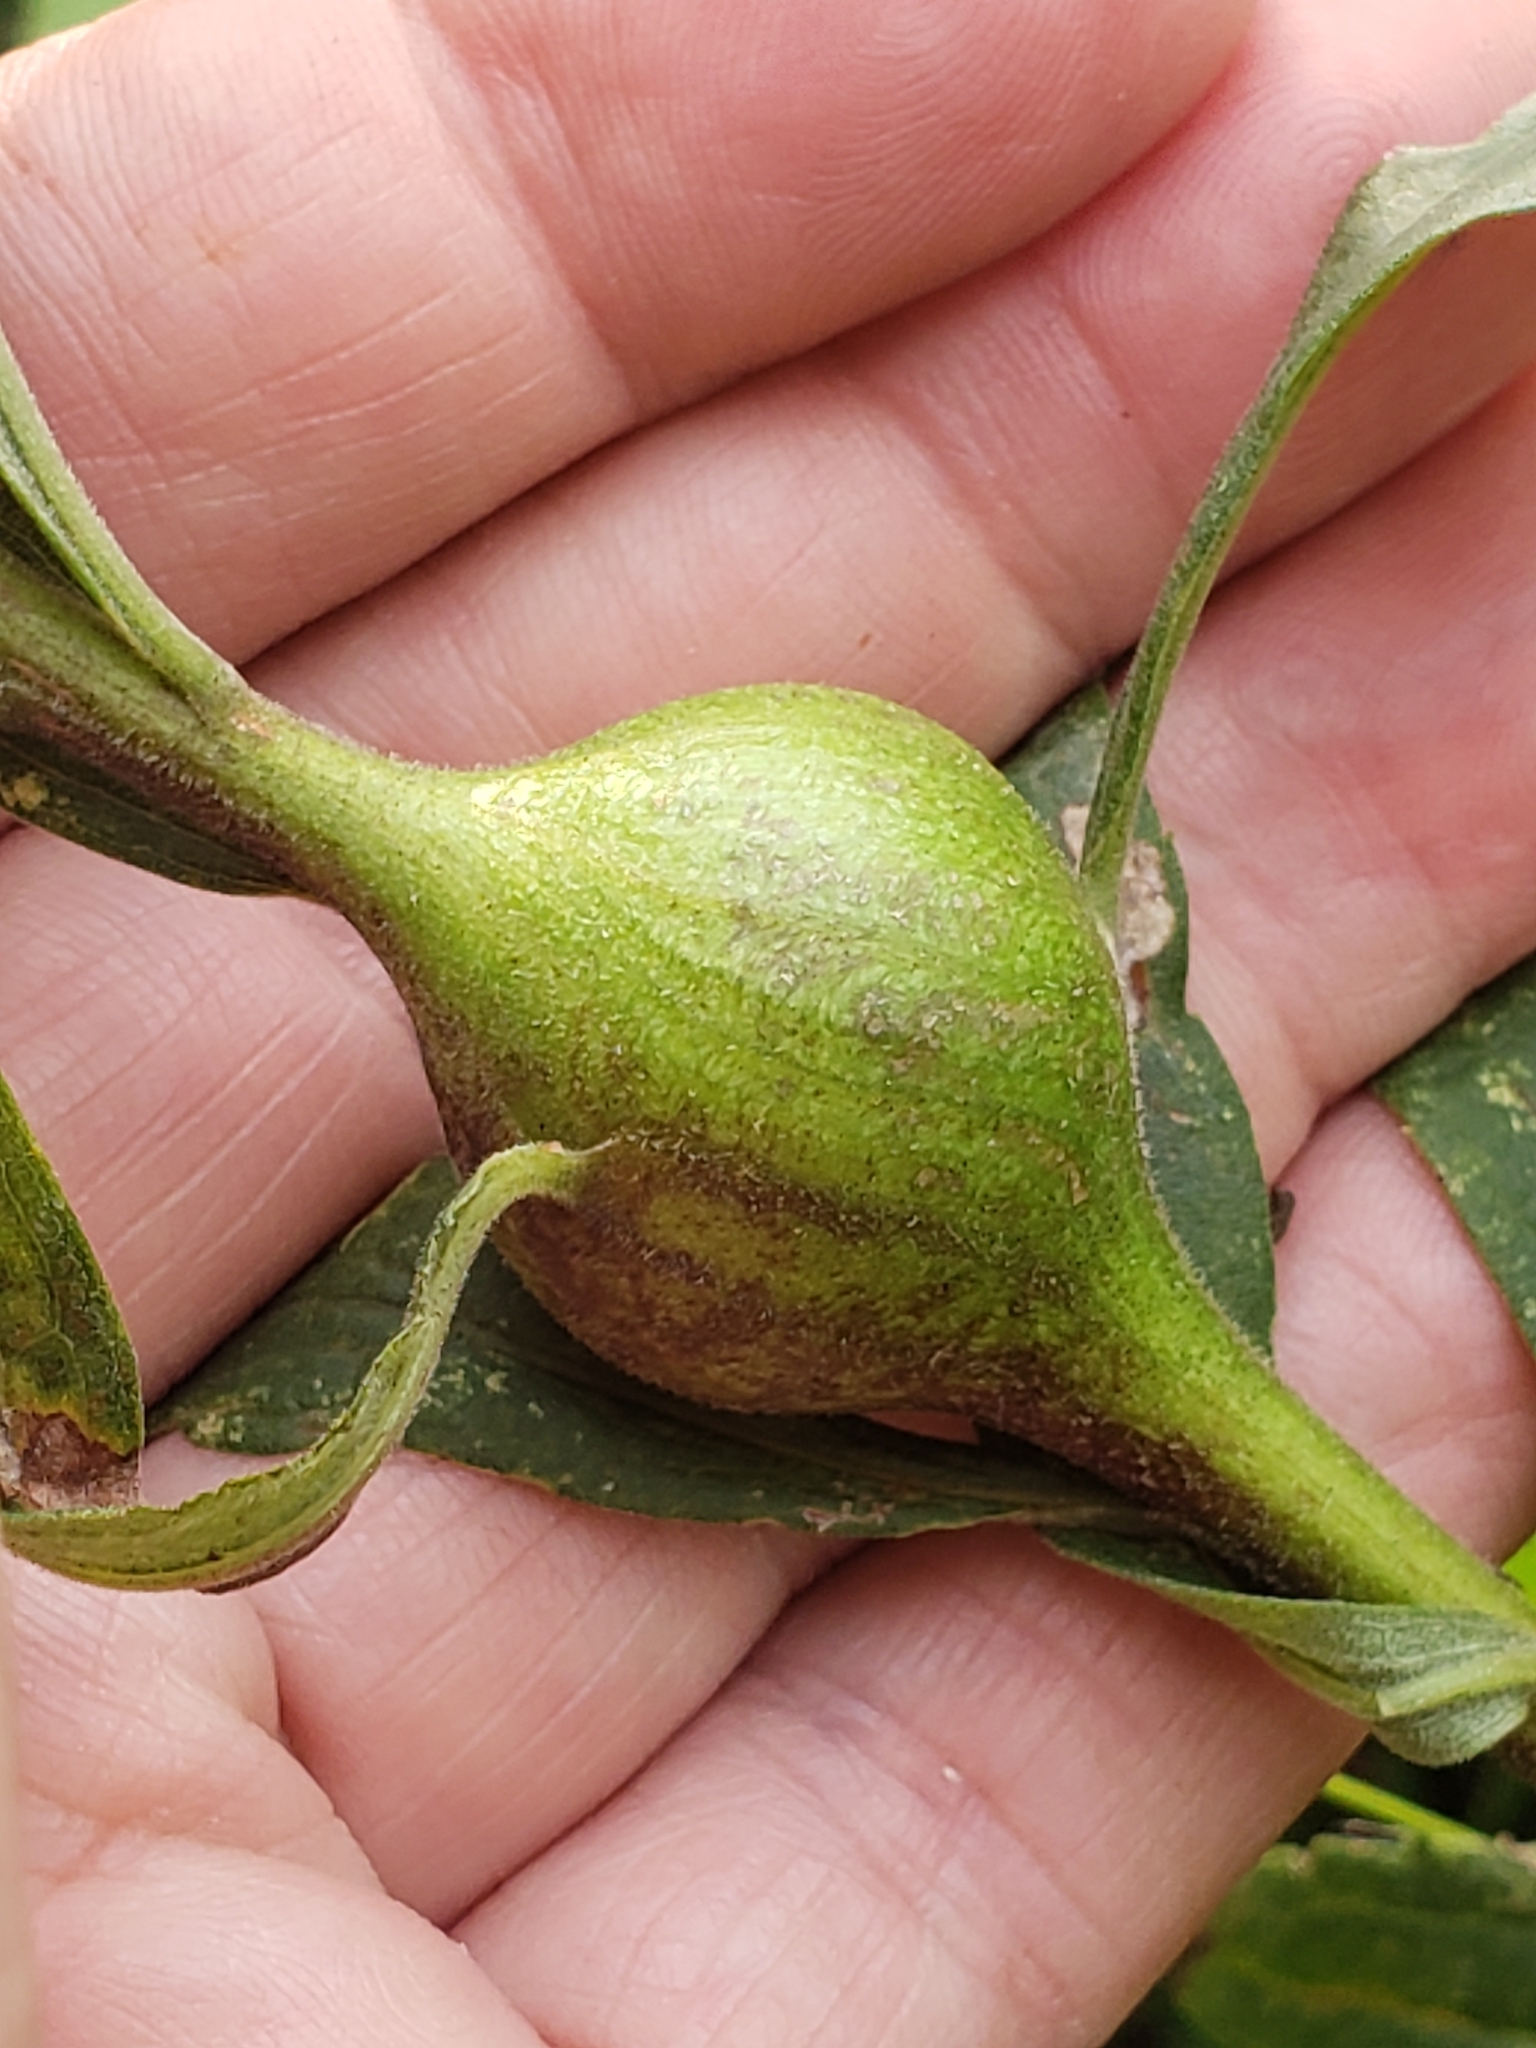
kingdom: Animalia
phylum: Arthropoda
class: Insecta
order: Diptera
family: Tephritidae
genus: Eurosta
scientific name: Eurosta solidaginis
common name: Goldenrod gall fly
